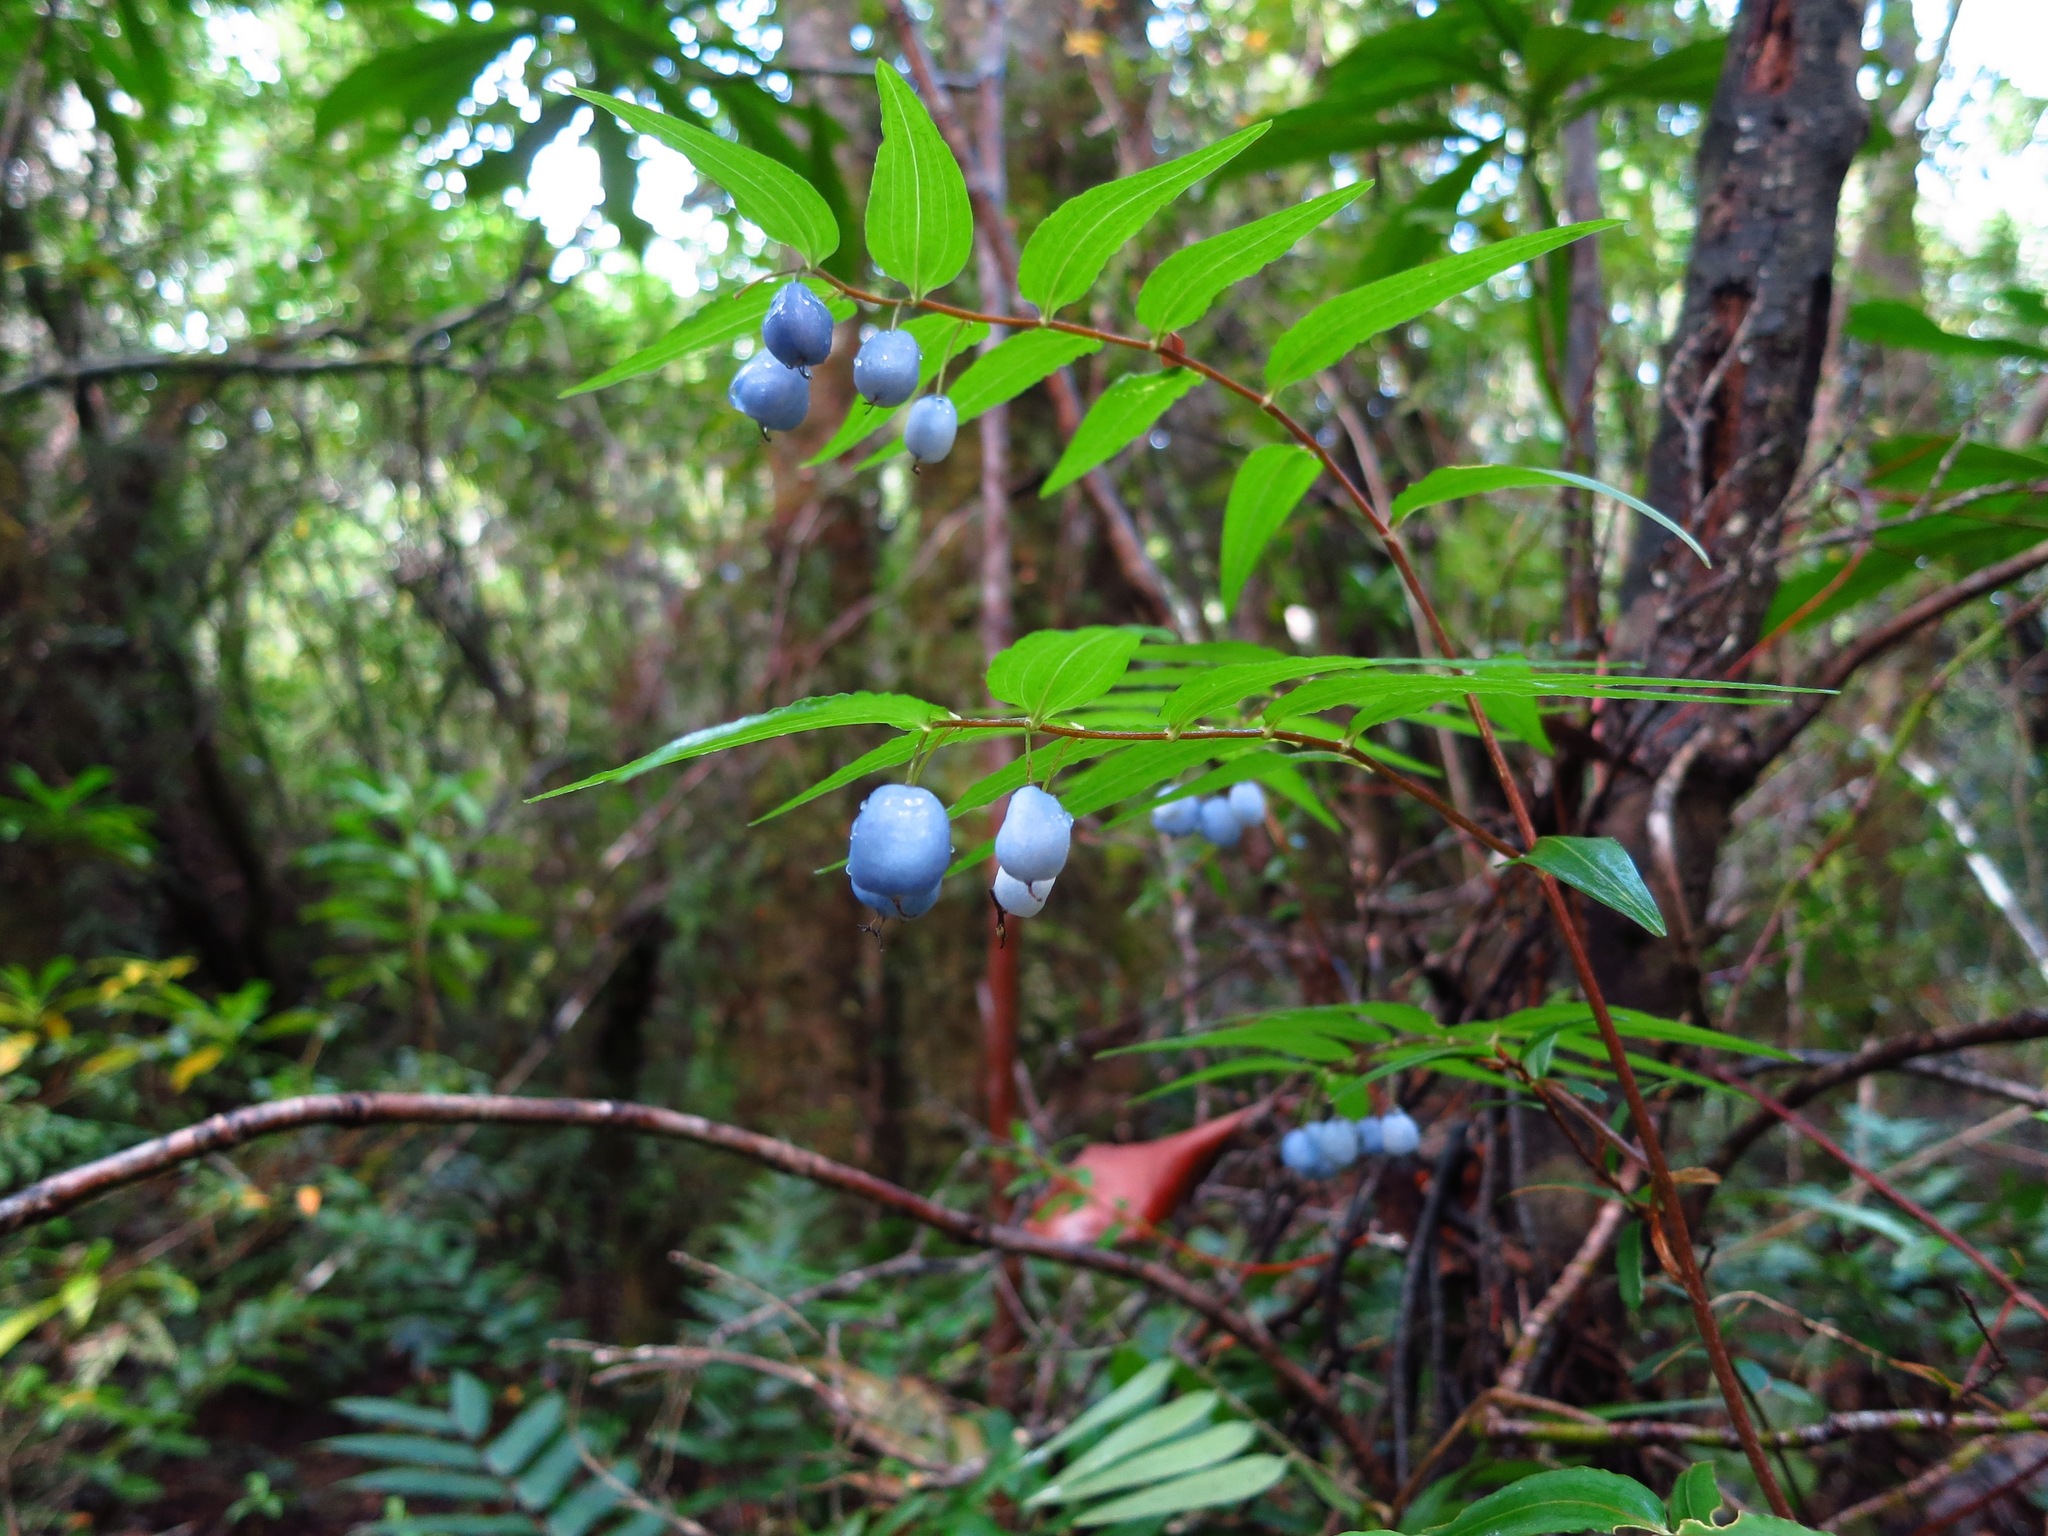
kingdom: Plantae
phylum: Tracheophyta
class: Liliopsida
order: Liliales
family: Alstroemeriaceae
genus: Drymophila
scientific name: Drymophila cyanocarpa
